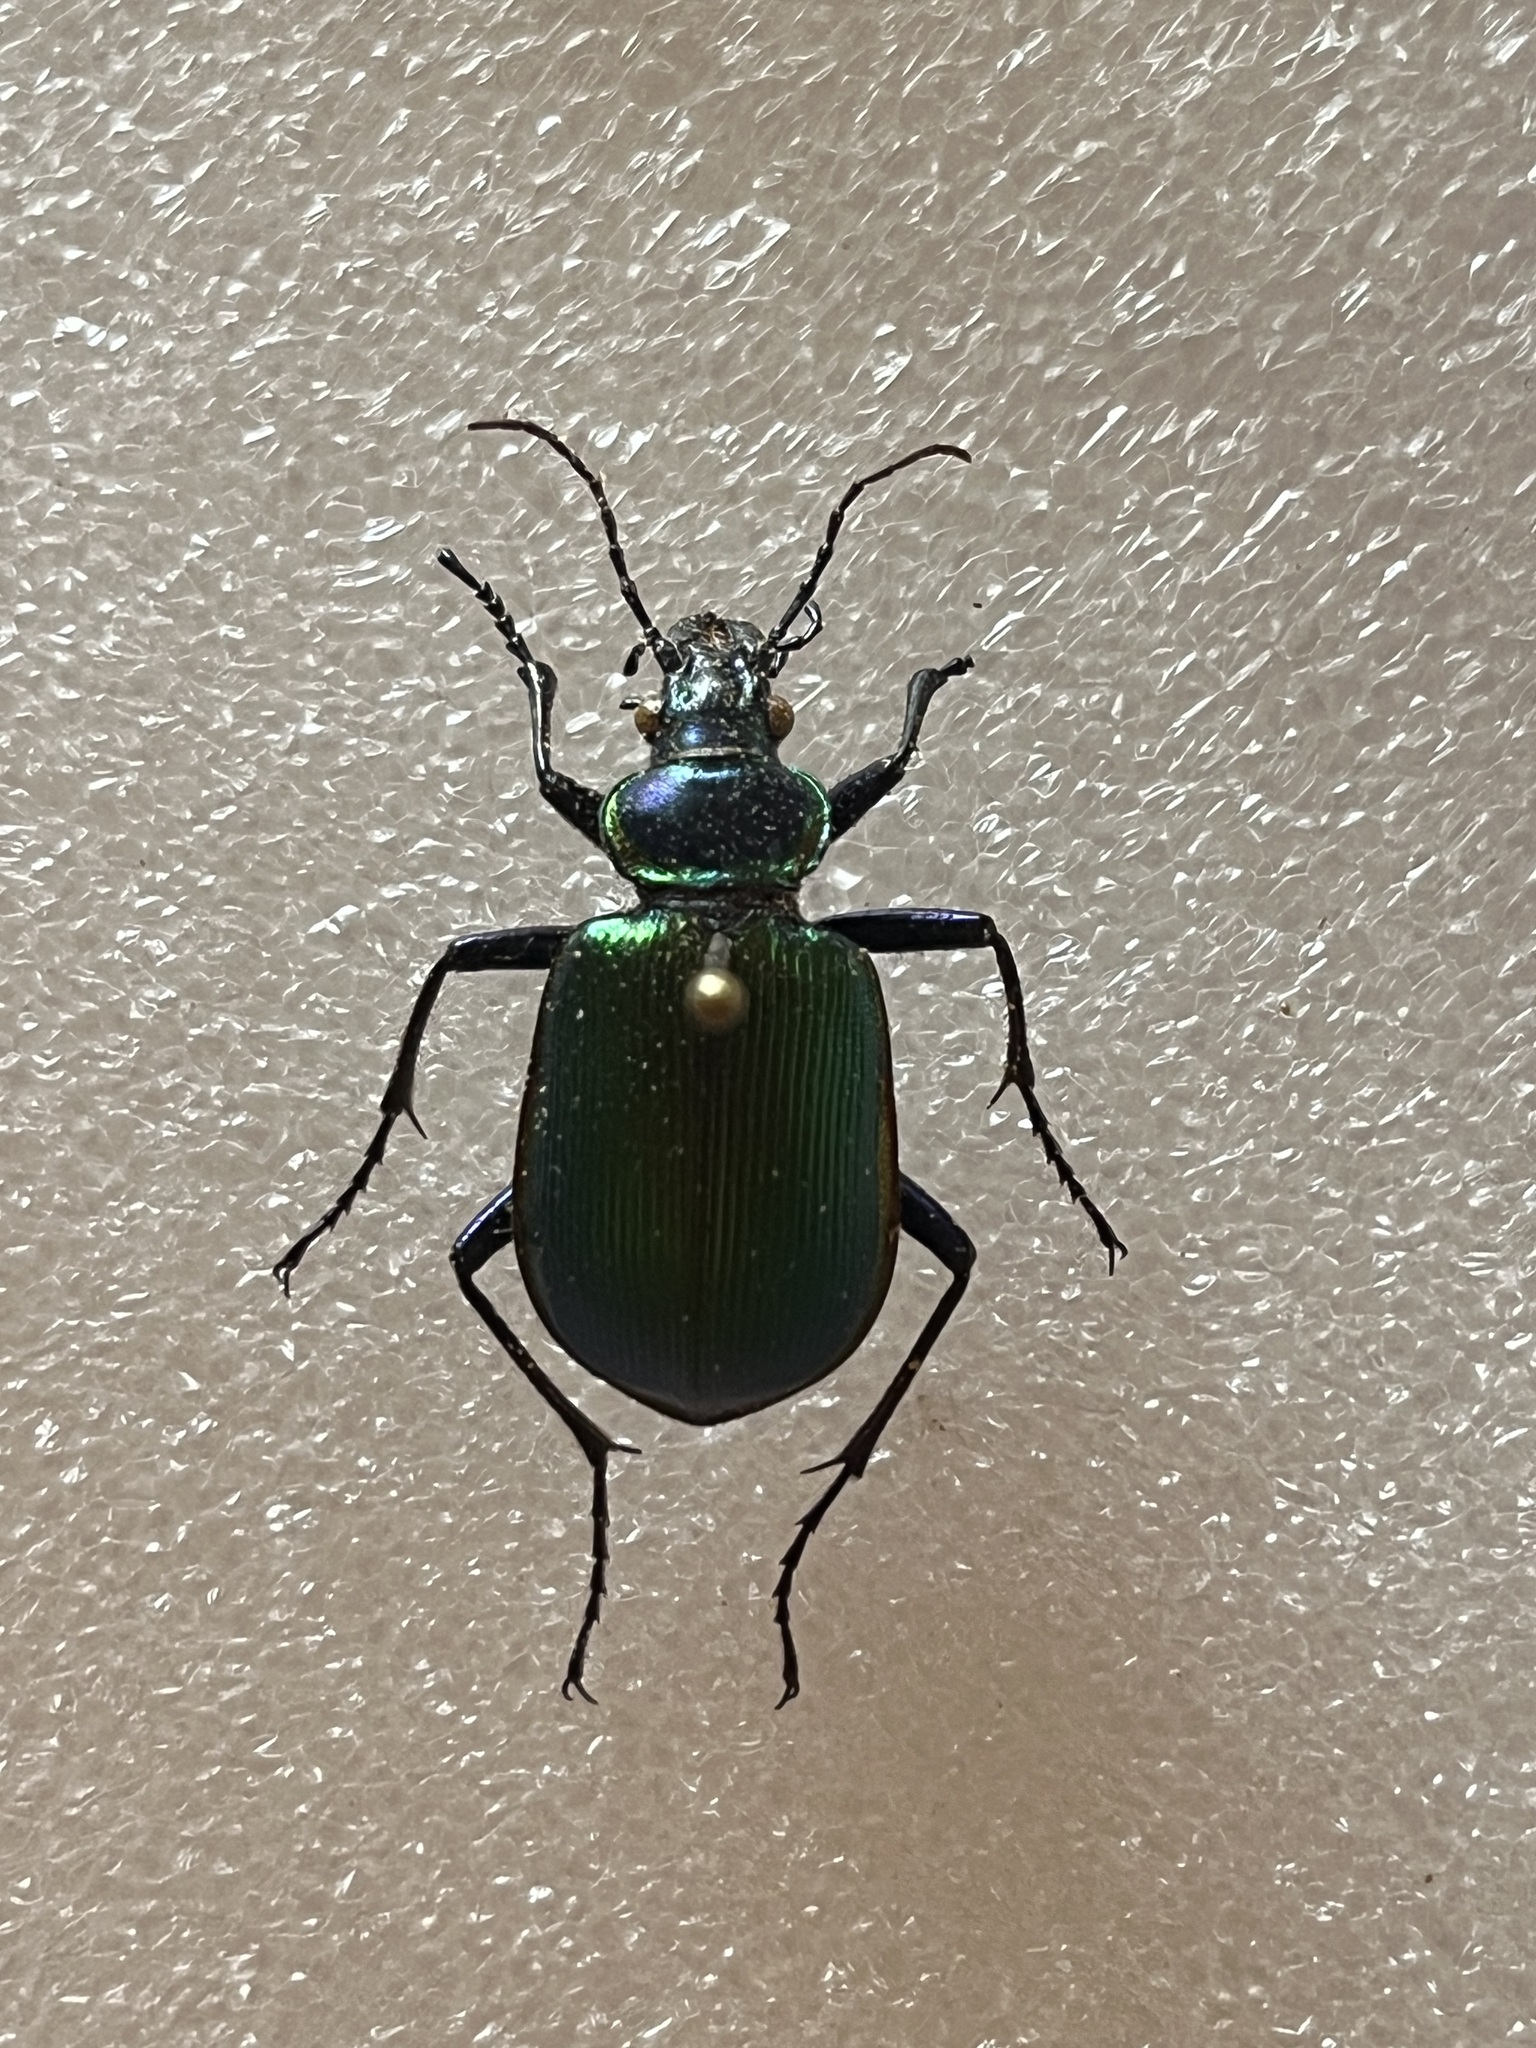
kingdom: Animalia
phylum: Arthropoda
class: Insecta
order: Coleoptera
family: Carabidae
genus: Calosoma
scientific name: Calosoma scrutator
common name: Fiery searcher beetle
